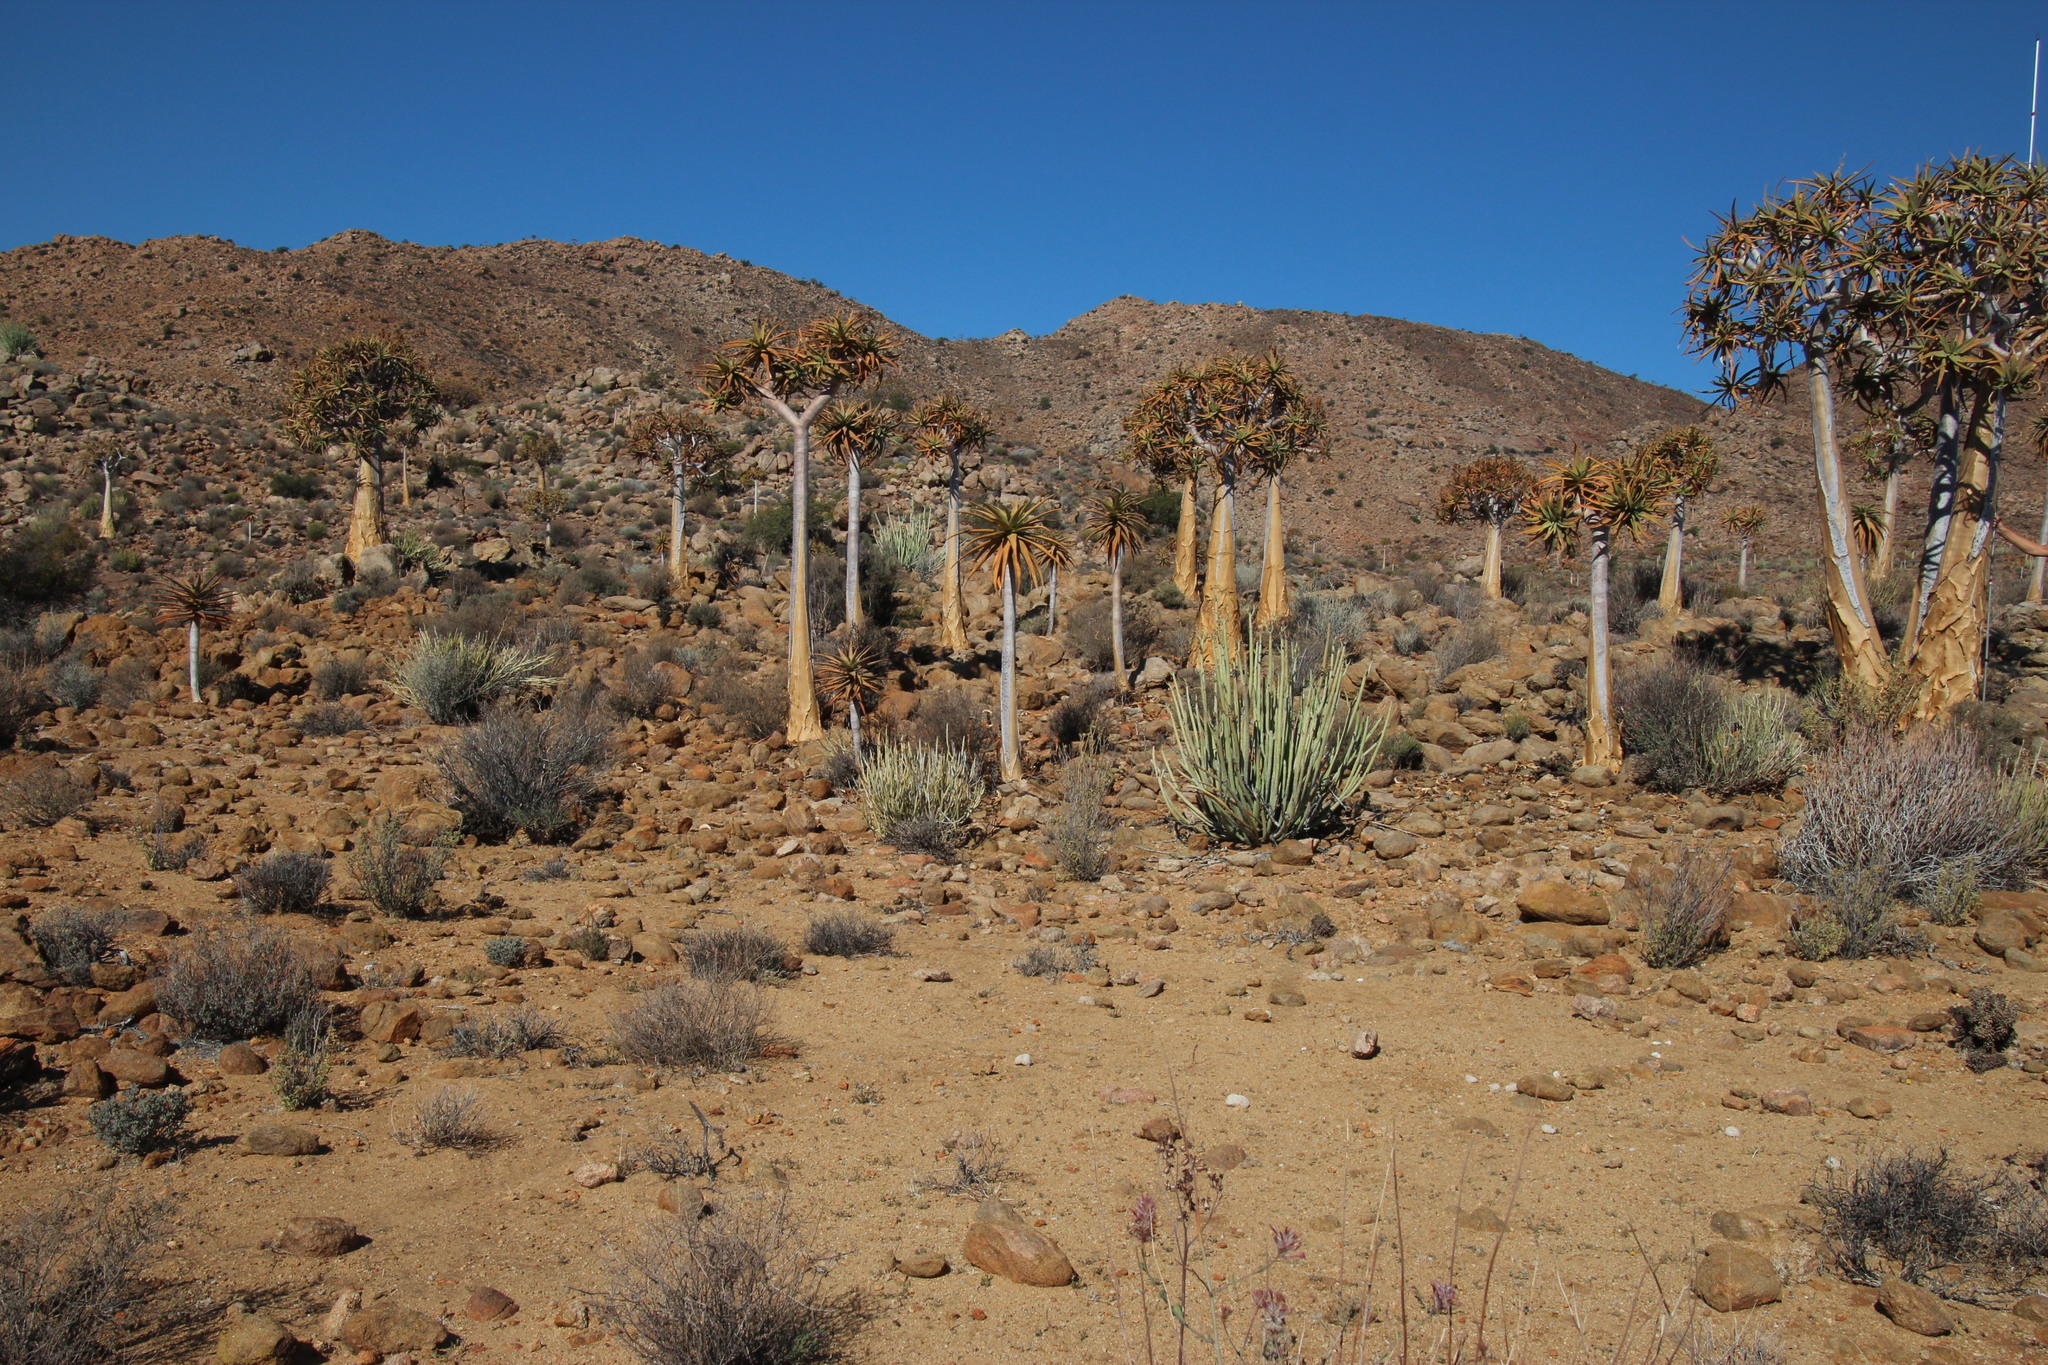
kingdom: Plantae
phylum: Tracheophyta
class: Liliopsida
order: Asparagales
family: Asphodelaceae
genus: Aloidendron
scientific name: Aloidendron dichotomum
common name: Quiver tree
